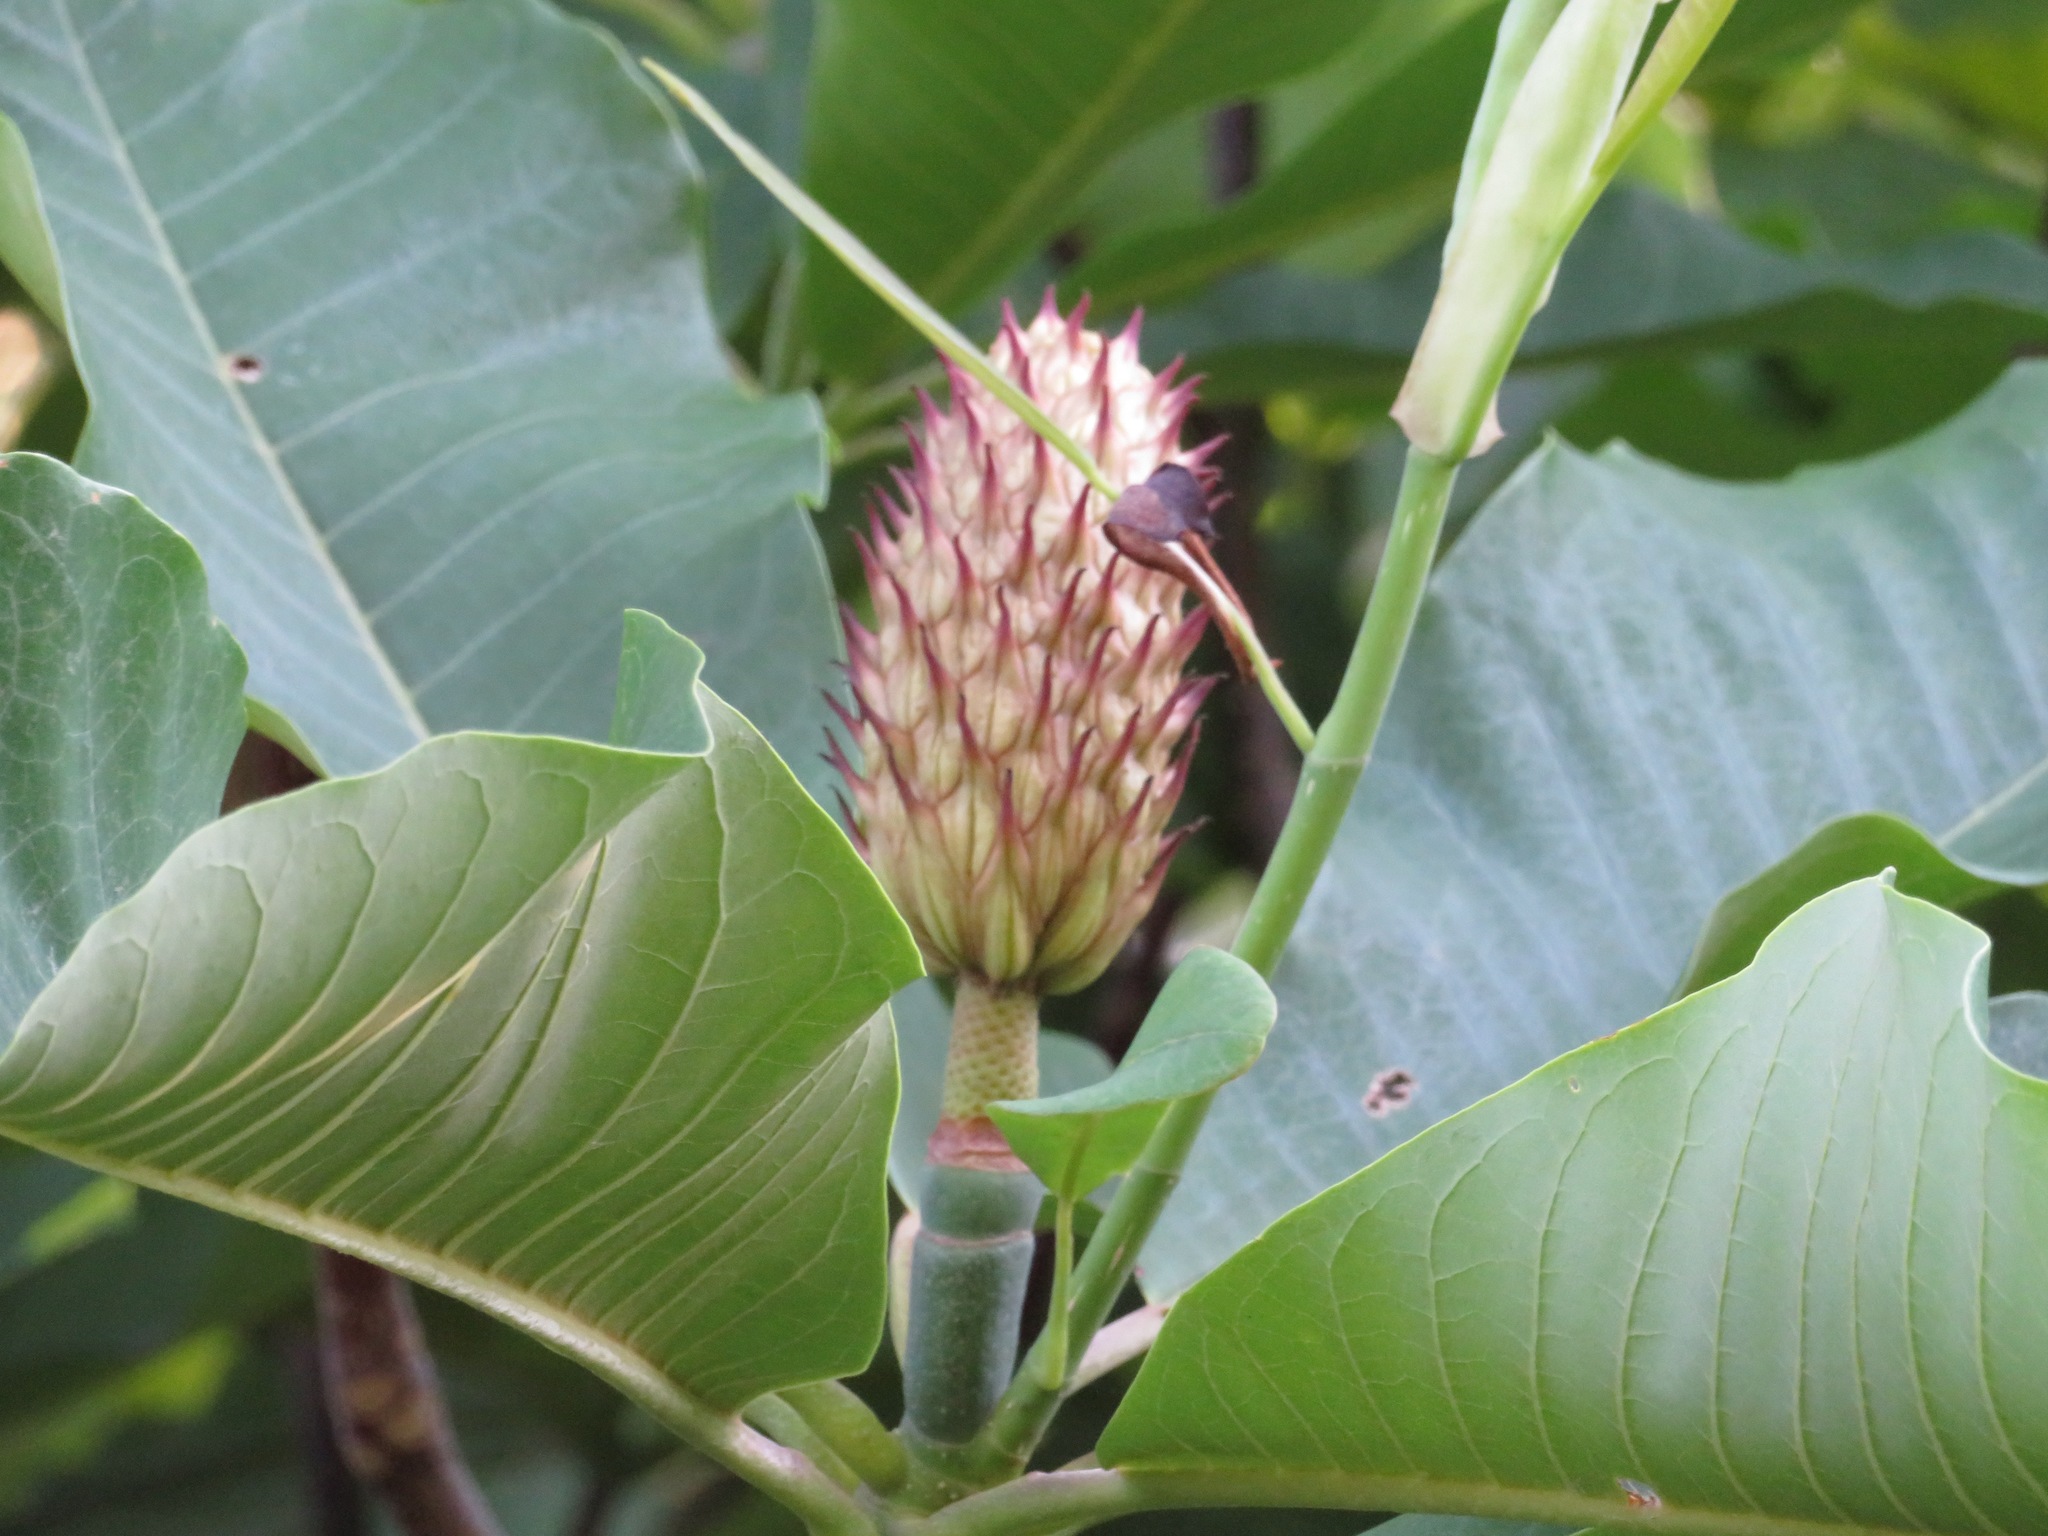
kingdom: Plantae
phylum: Tracheophyta
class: Magnoliopsida
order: Magnoliales
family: Magnoliaceae
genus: Magnolia
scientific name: Magnolia obovata
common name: Japanese whitebark magnolia
